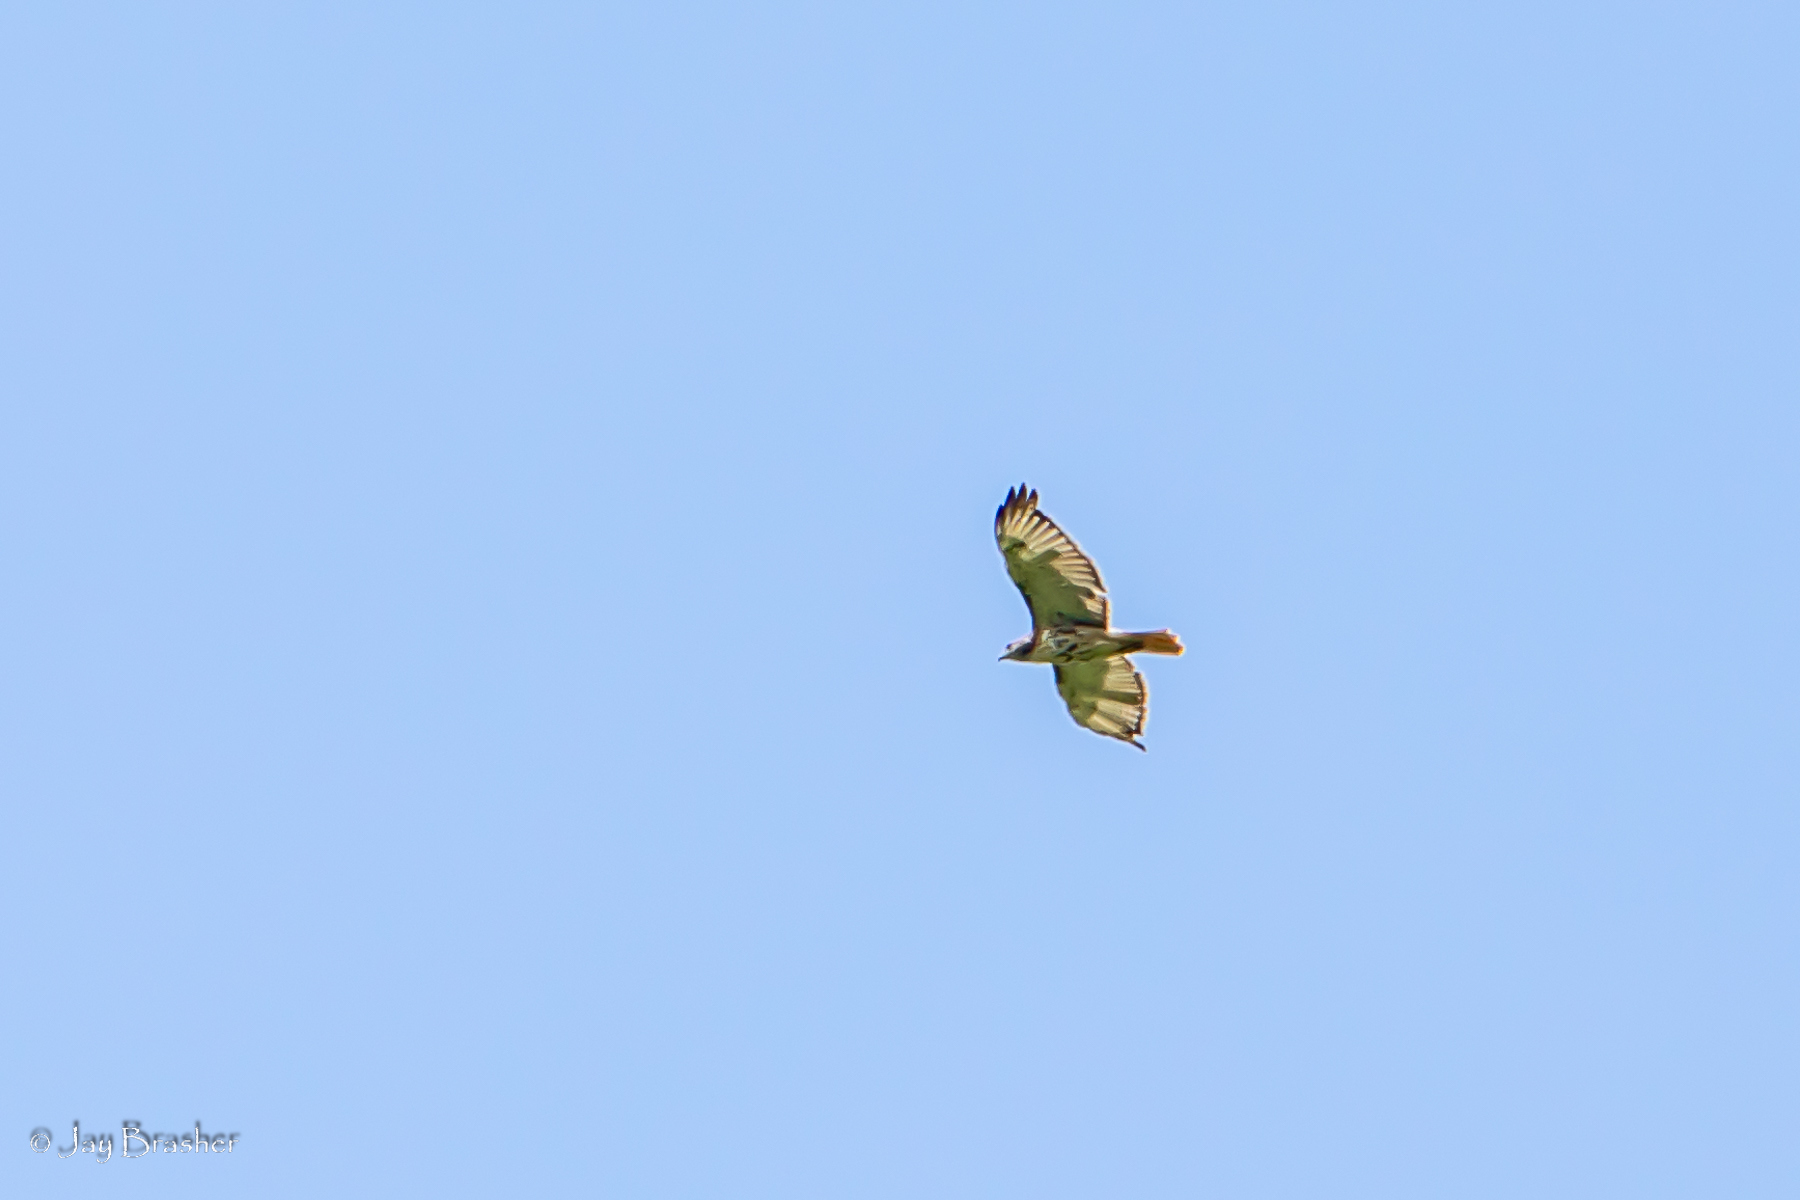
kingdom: Animalia
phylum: Chordata
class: Aves
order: Accipitriformes
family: Accipitridae
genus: Buteo
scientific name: Buteo jamaicensis
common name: Red-tailed hawk
